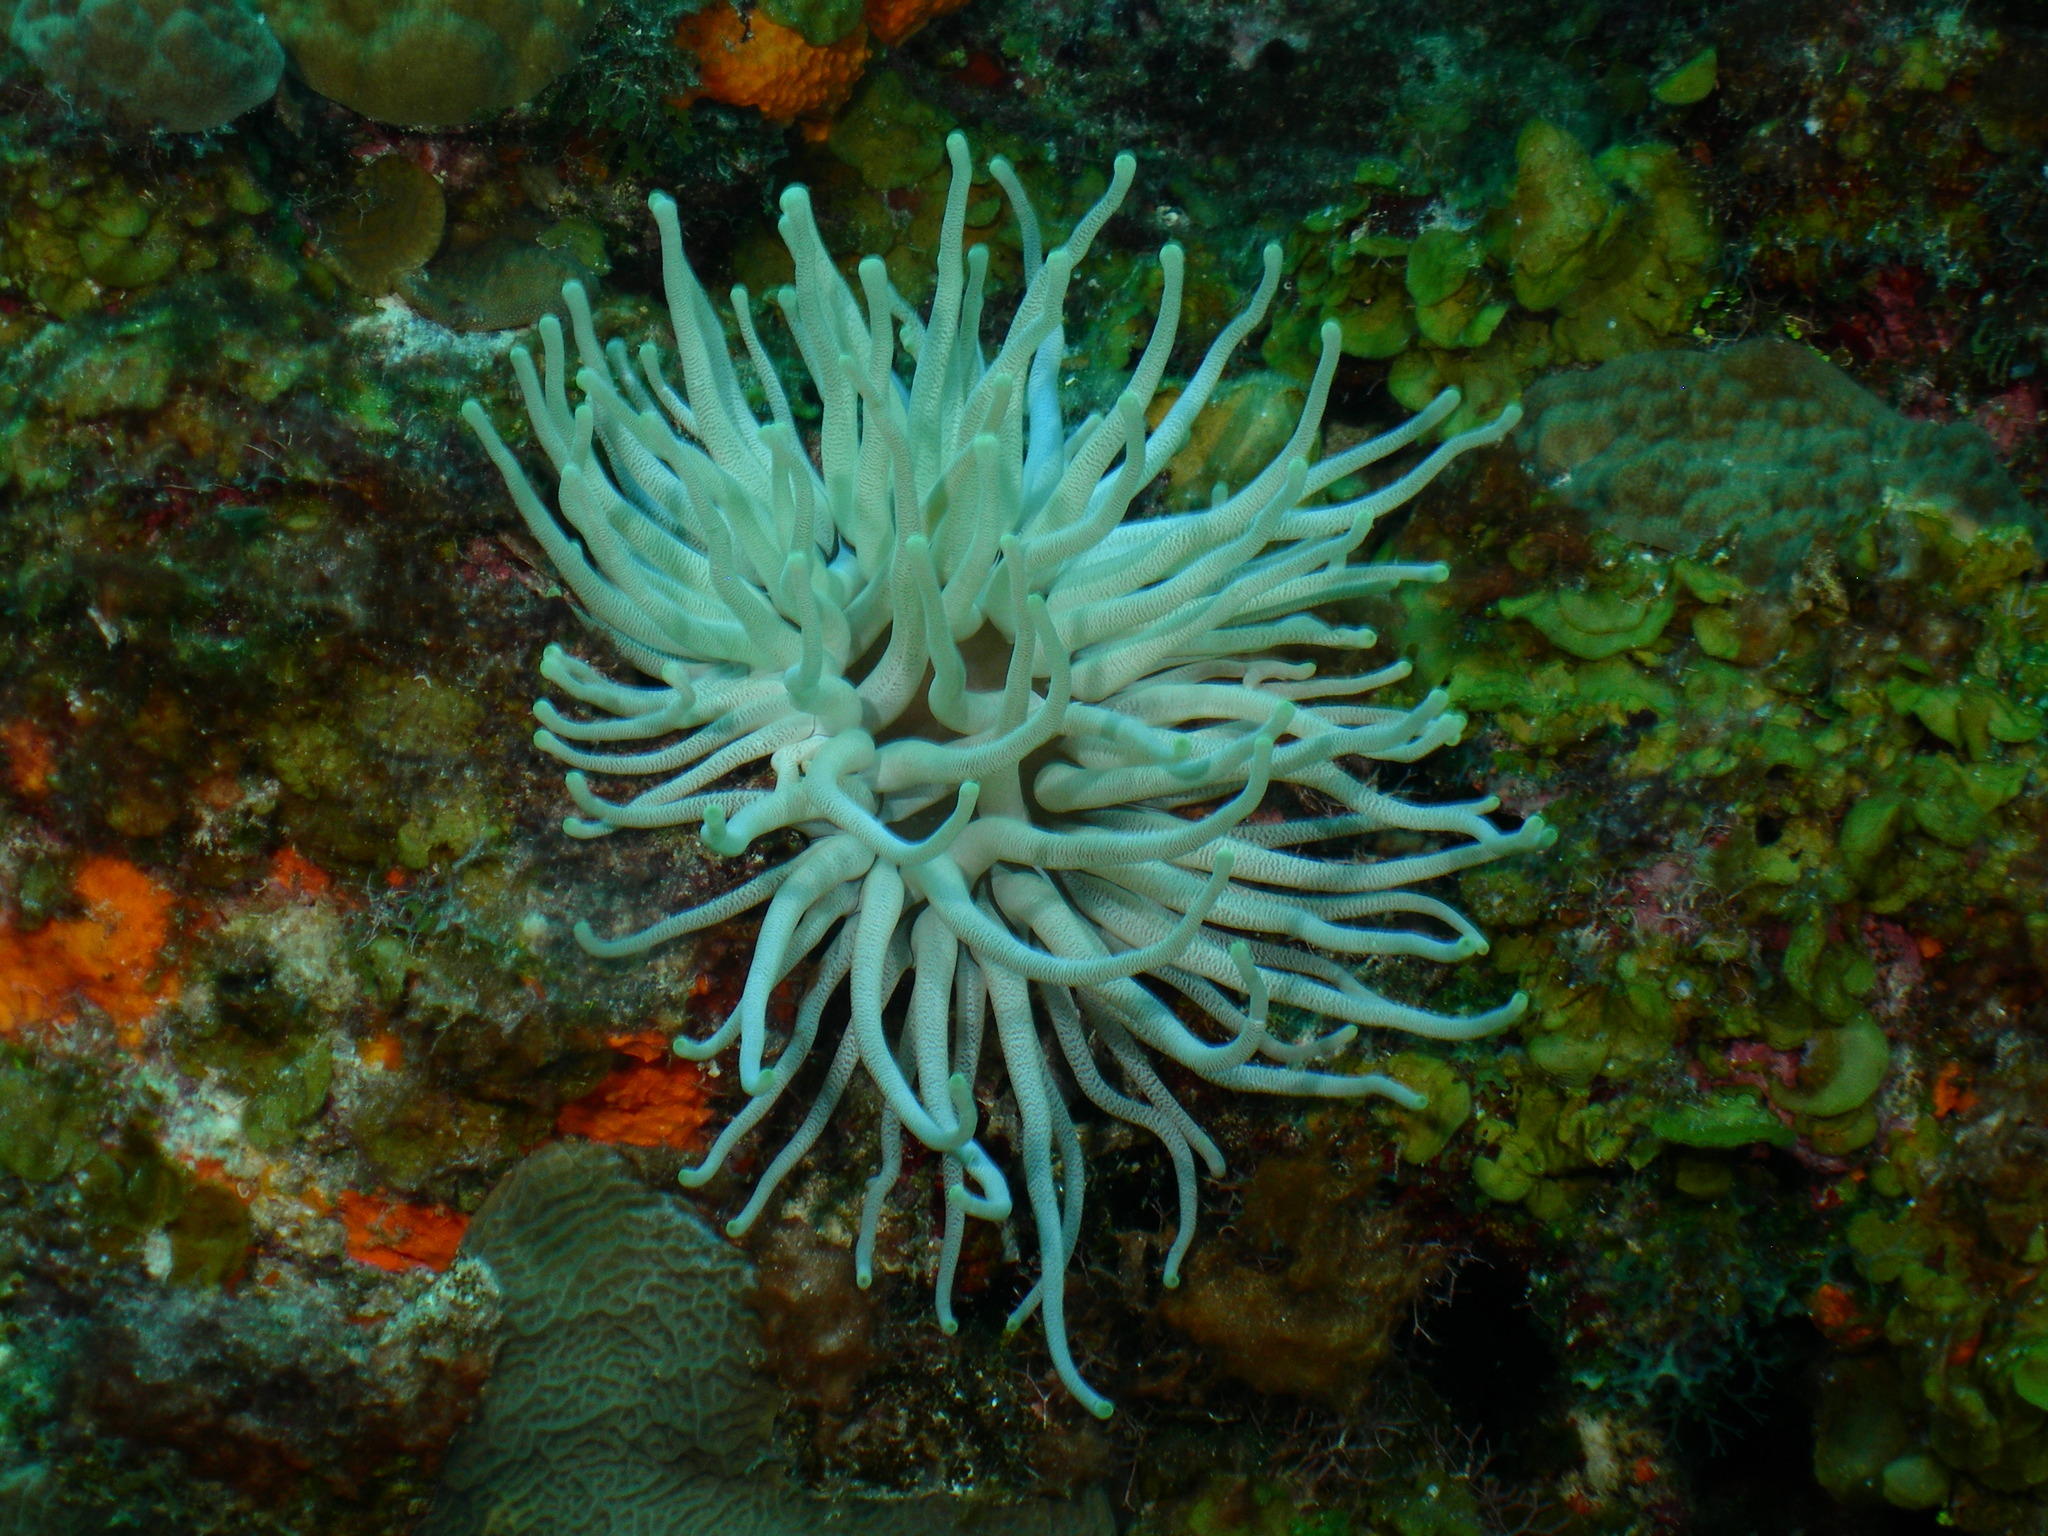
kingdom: Animalia
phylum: Cnidaria
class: Anthozoa
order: Actiniaria
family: Actiniidae
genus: Condylactis
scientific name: Condylactis gigantea
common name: Giant caribbean anemone
